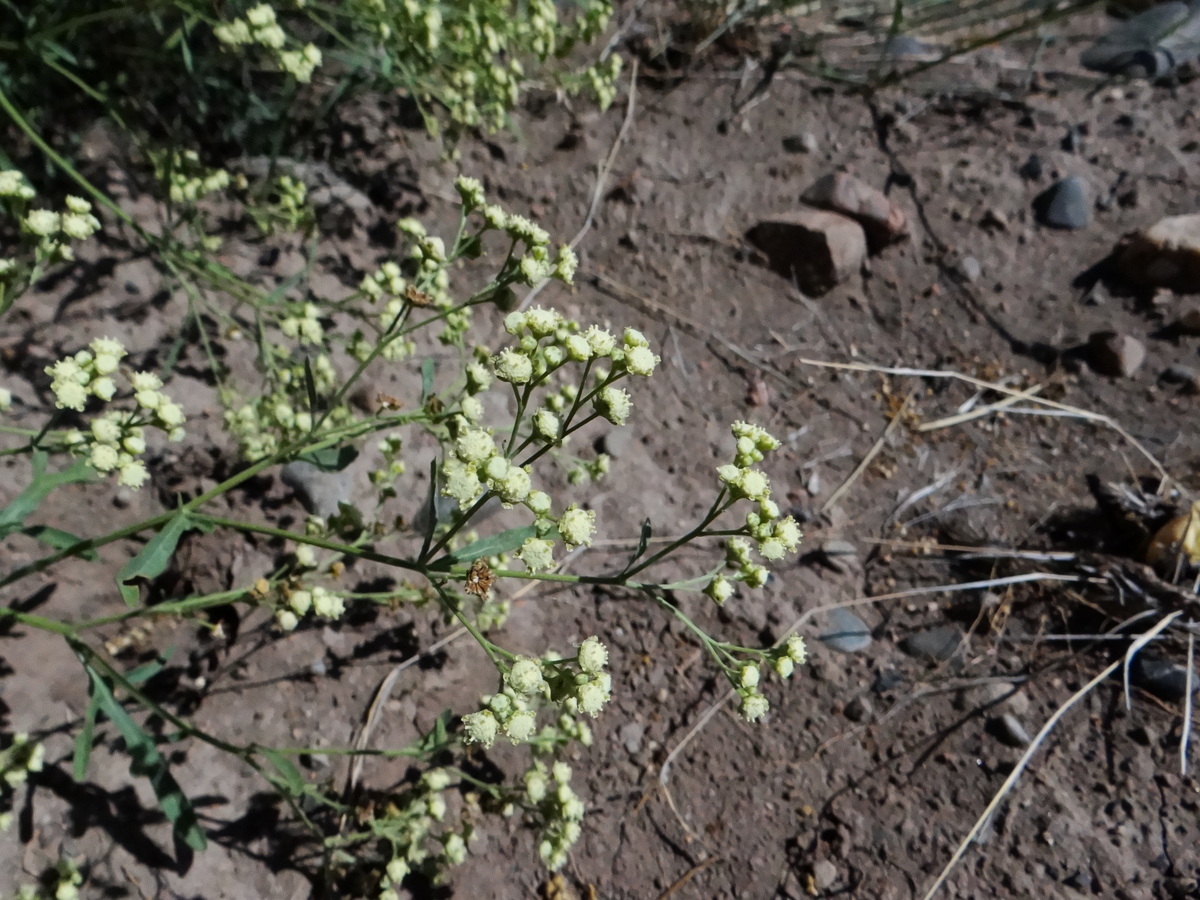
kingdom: Plantae
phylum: Tracheophyta
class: Magnoliopsida
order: Asterales
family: Asteraceae
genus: Parthenium
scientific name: Parthenium hysterophorus
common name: Santa maria feverfew
